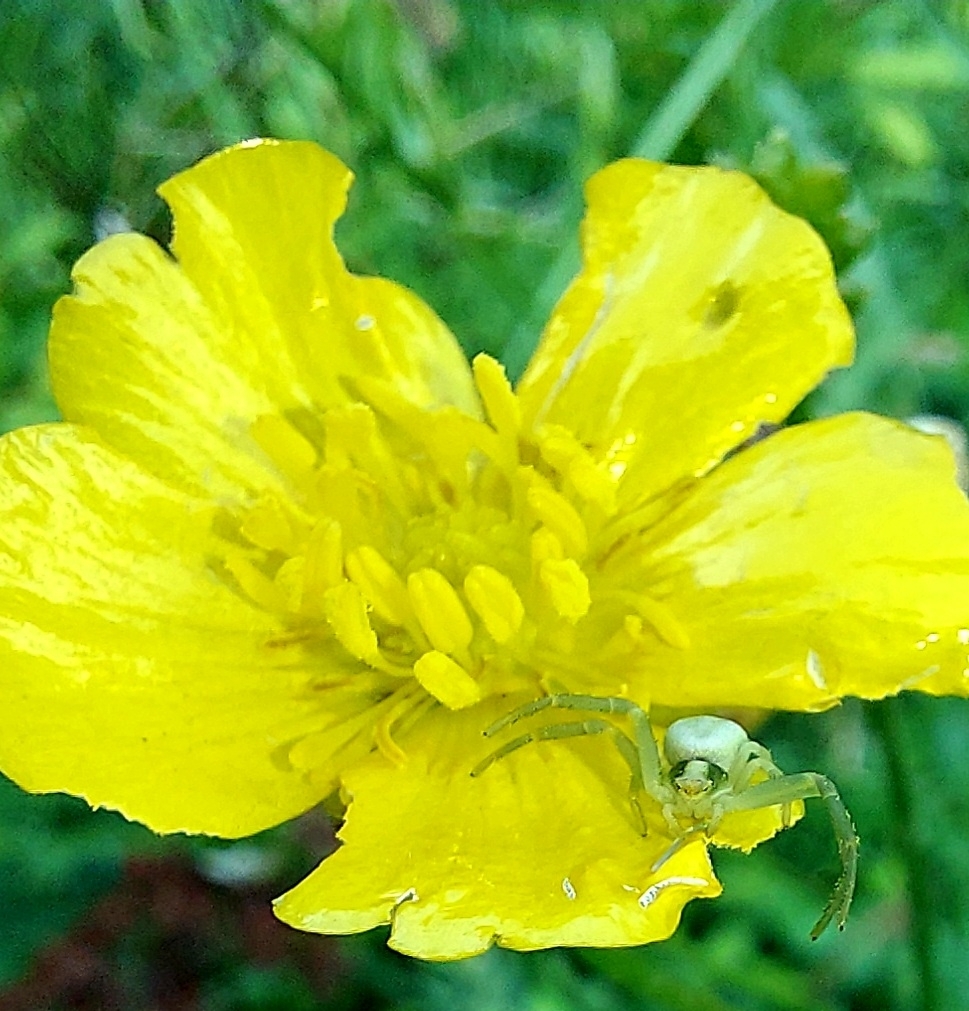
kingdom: Animalia
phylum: Arthropoda
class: Arachnida
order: Araneae
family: Thomisidae
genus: Misumena
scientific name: Misumena vatia
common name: Goldenrod crab spider
